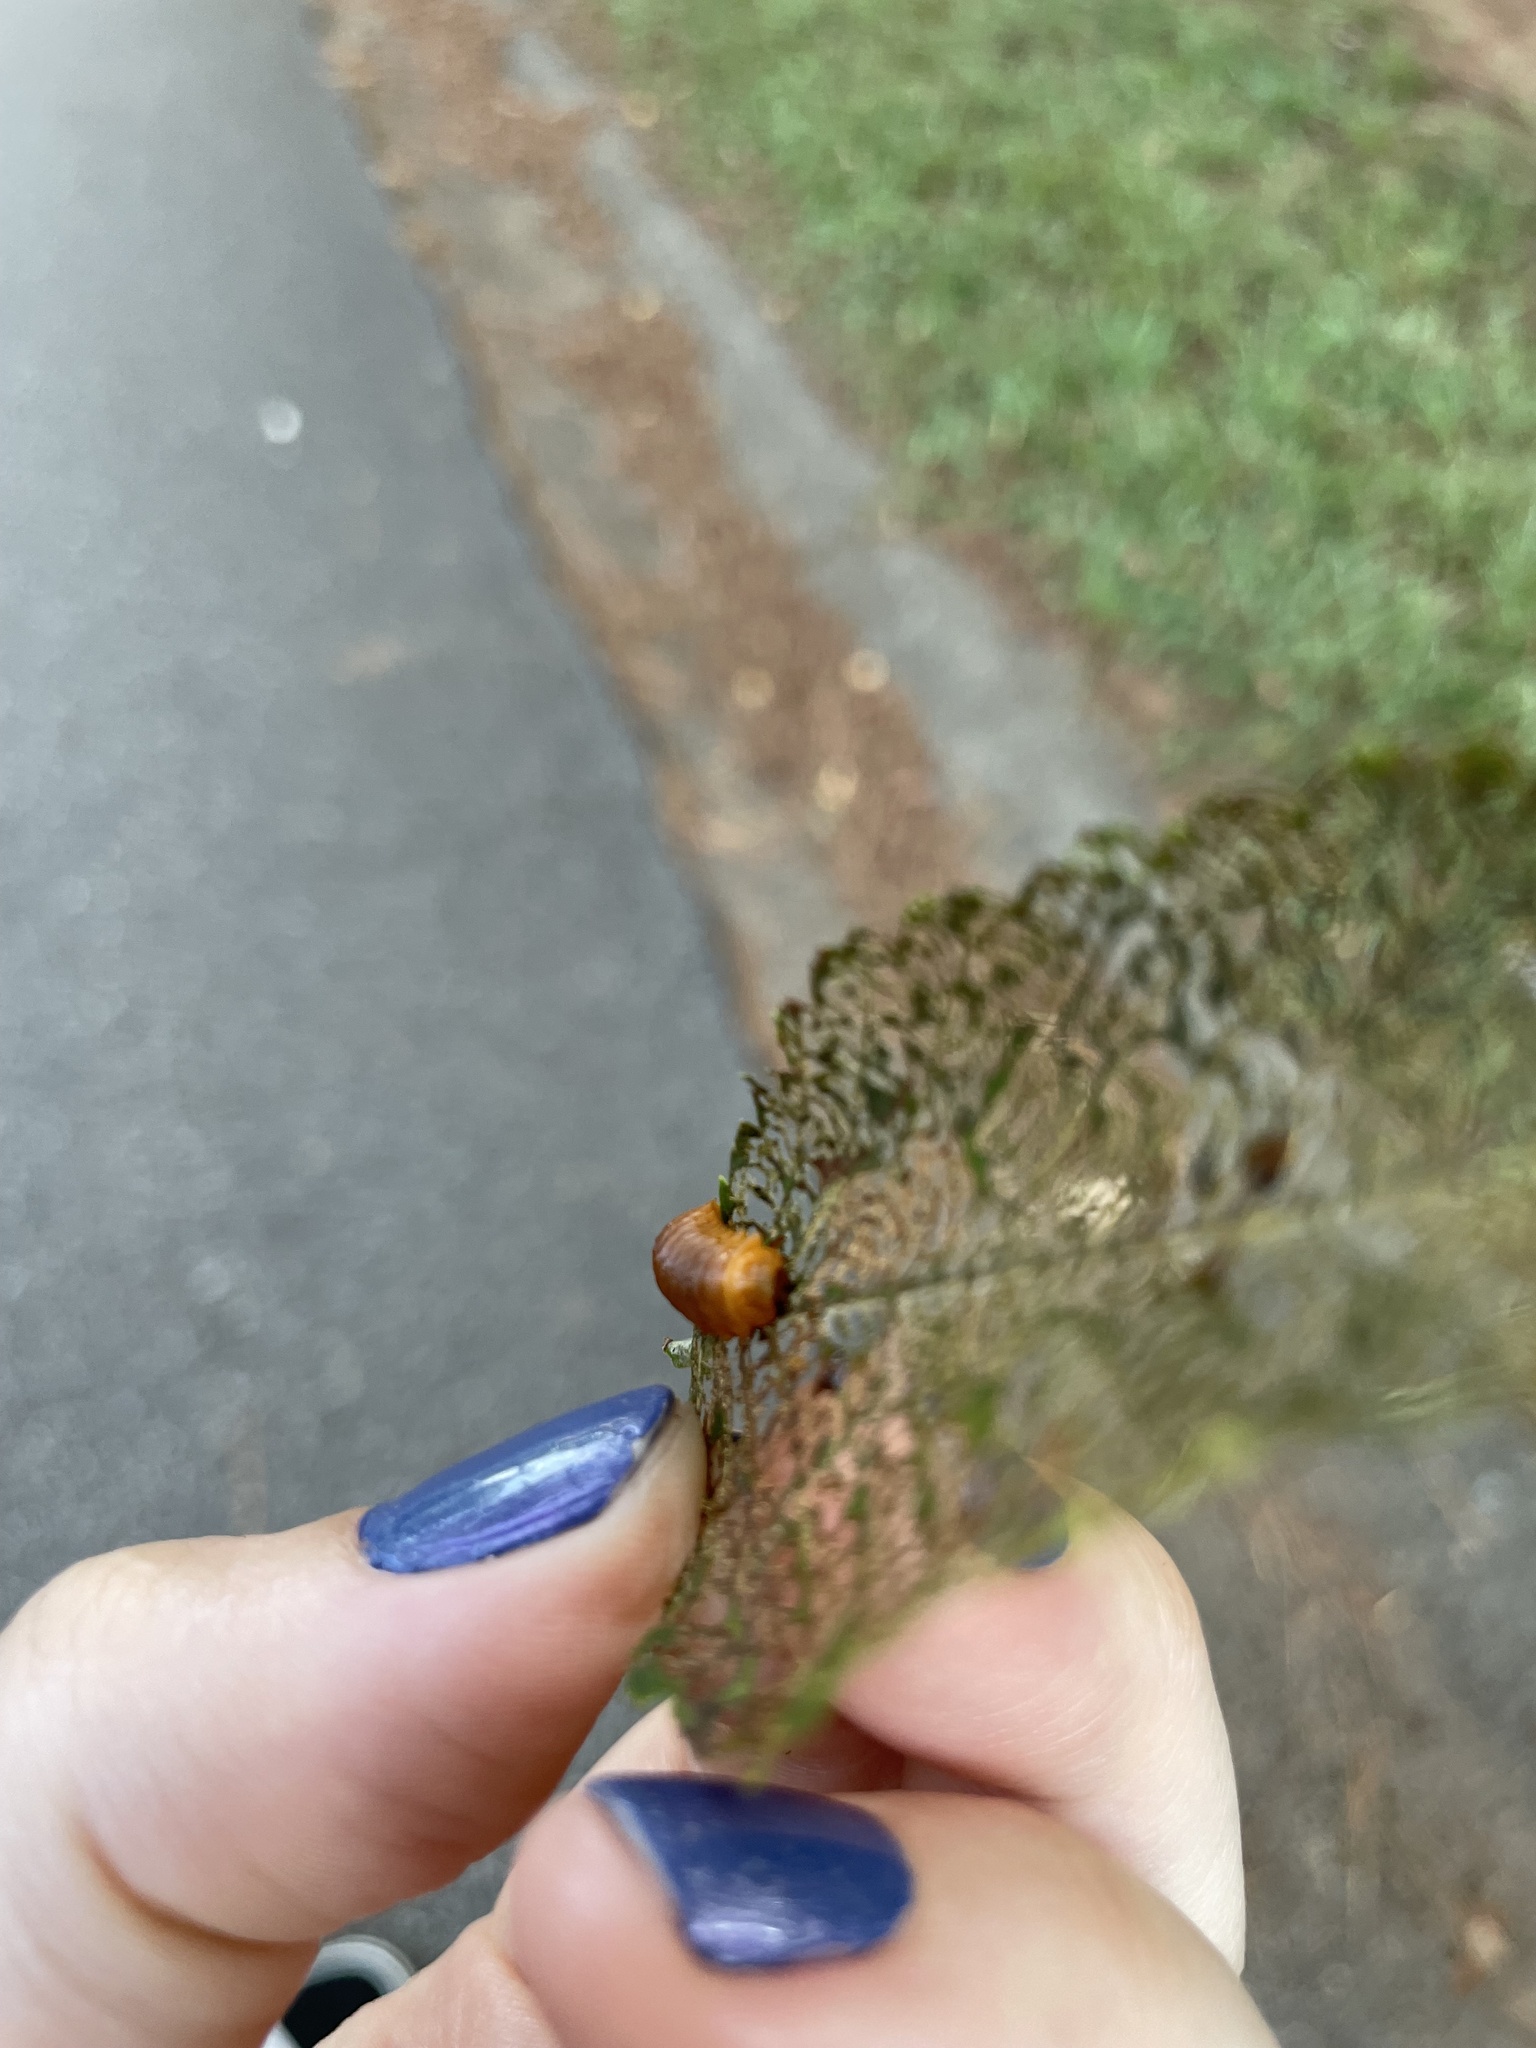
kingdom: Animalia
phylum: Arthropoda
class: Insecta
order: Coleoptera
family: Chrysomelidae
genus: Monocesta
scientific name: Monocesta coryli
